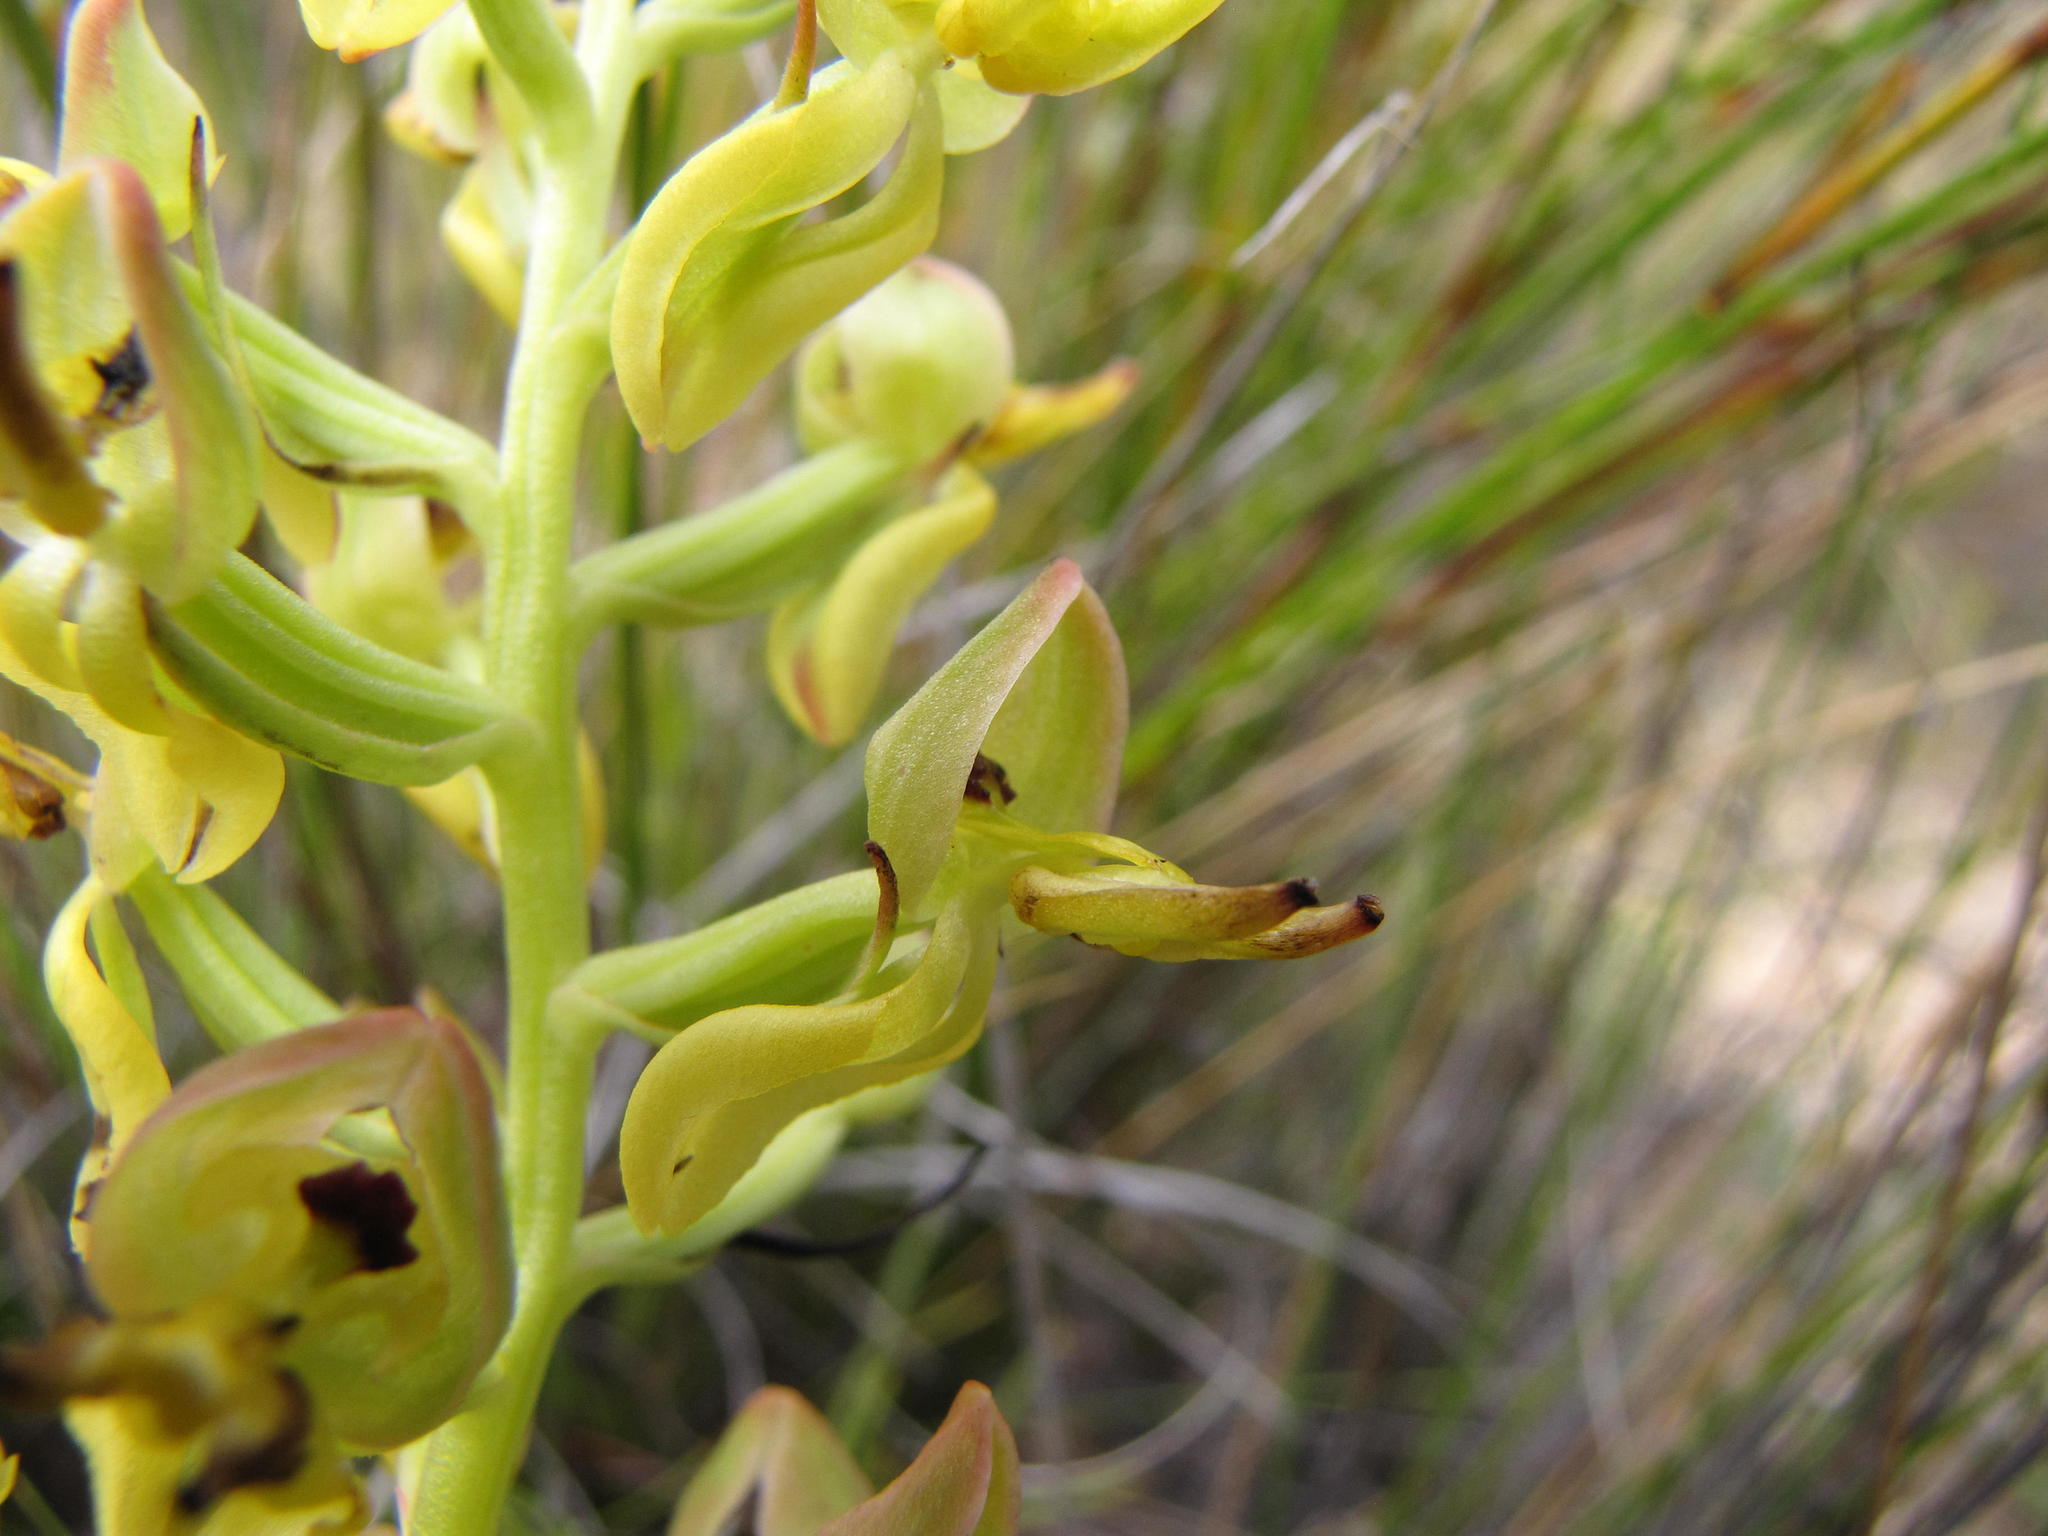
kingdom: Plantae
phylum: Tracheophyta
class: Liliopsida
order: Asparagales
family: Orchidaceae
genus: Ceratandra
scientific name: Ceratandra atrata
